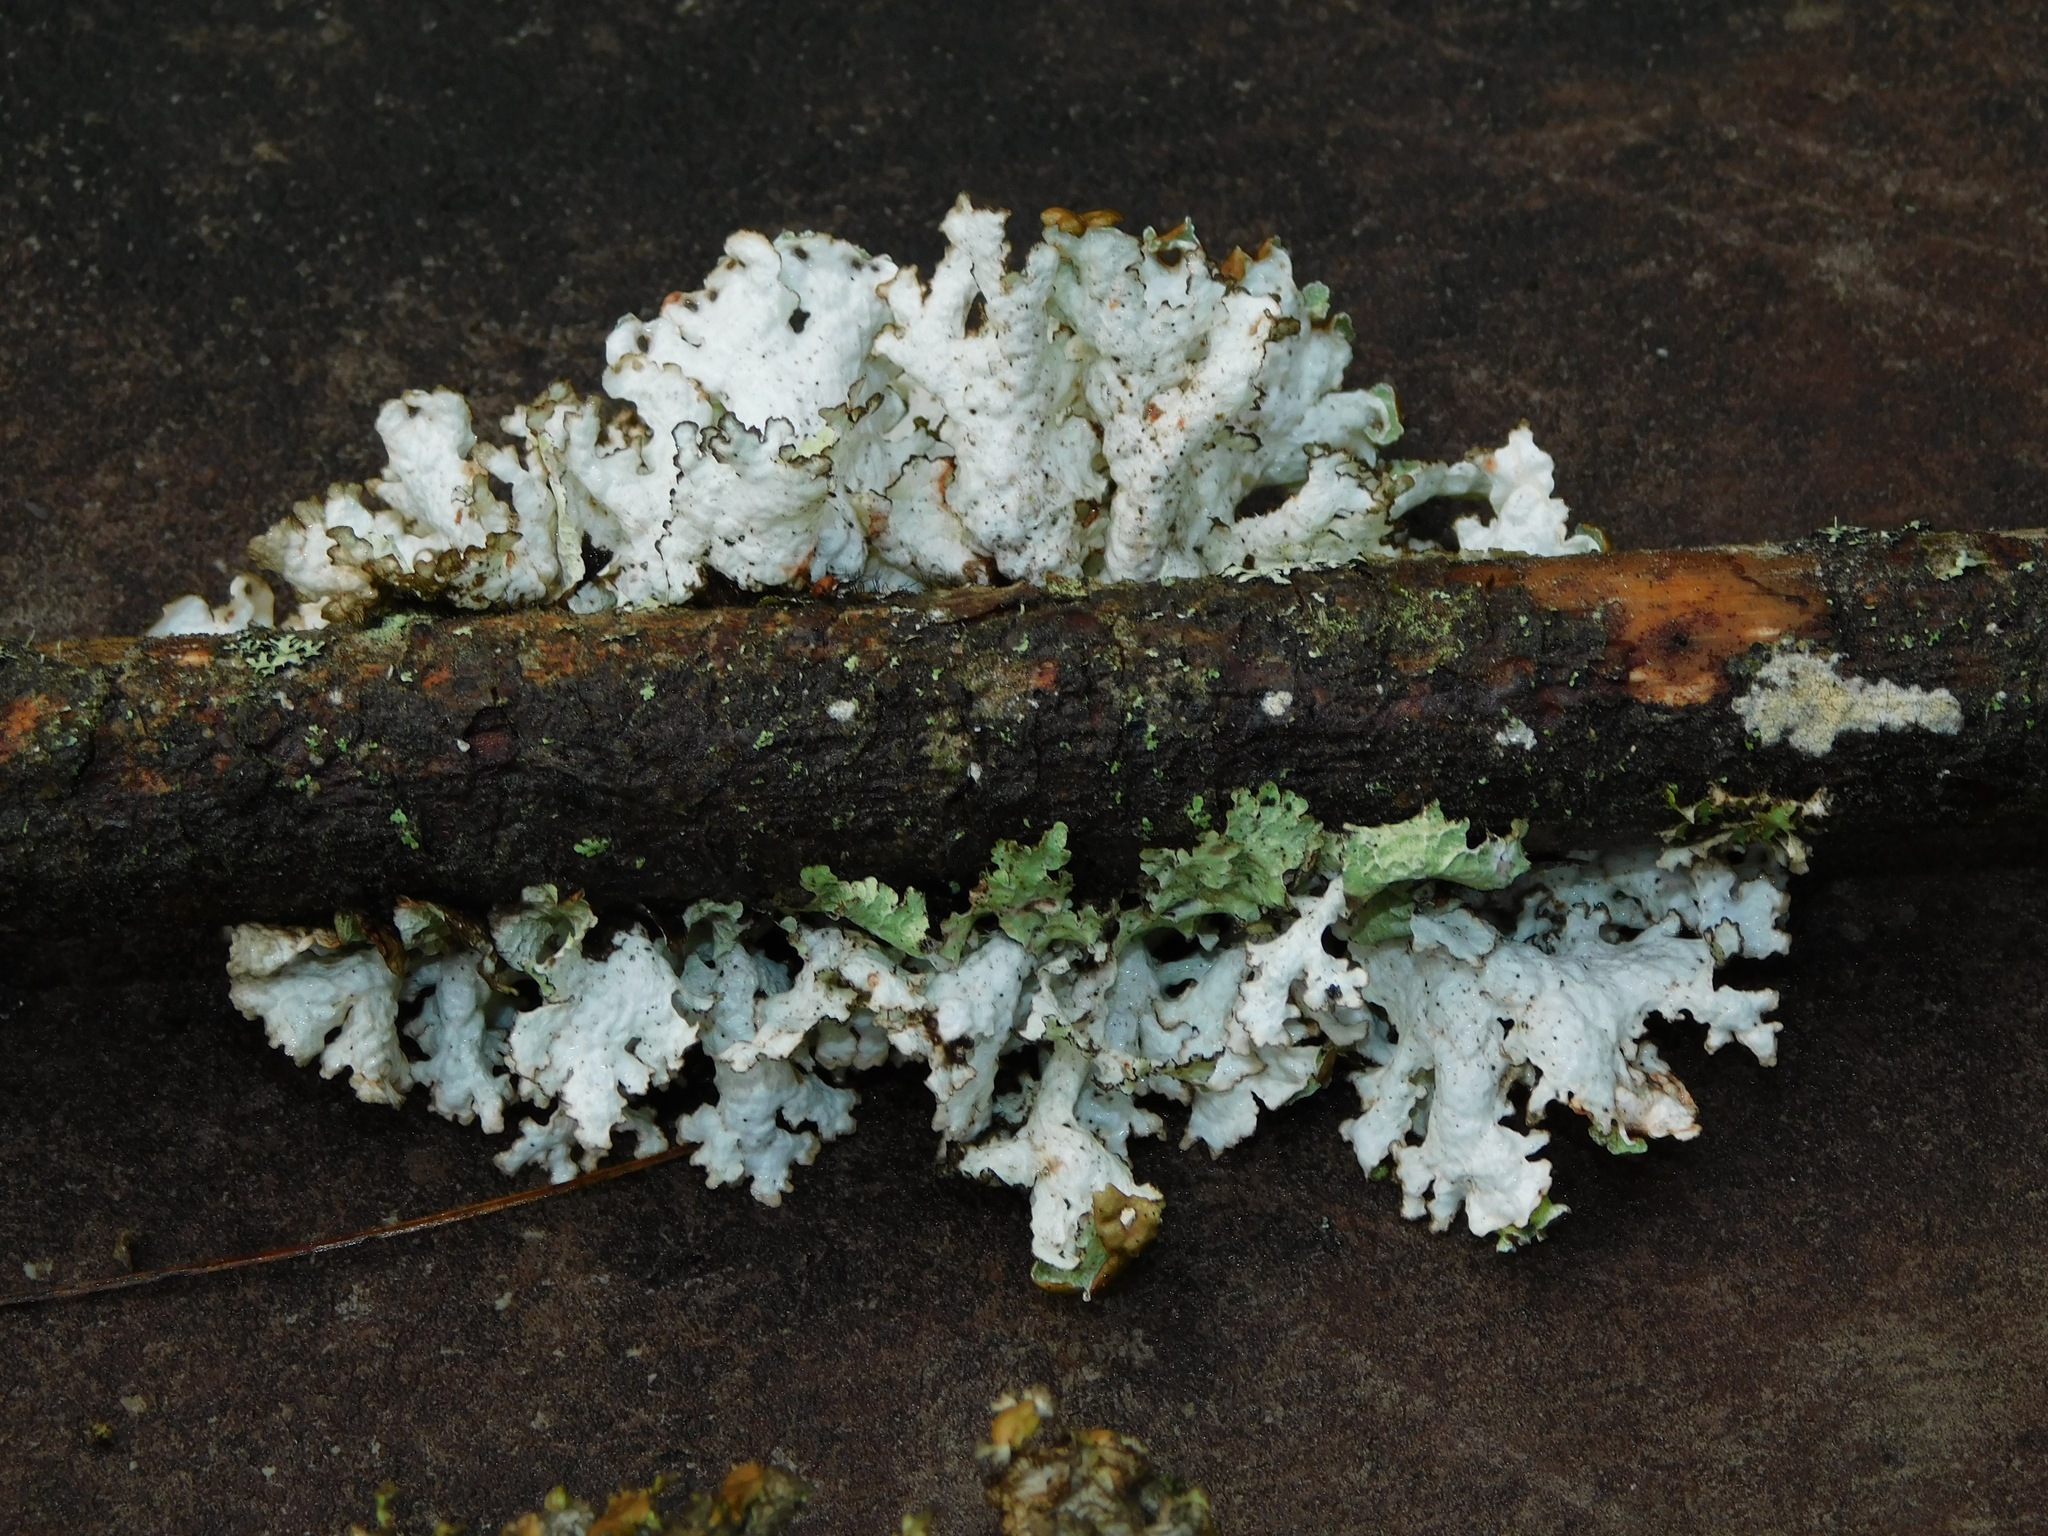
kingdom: Fungi
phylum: Ascomycota
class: Lecanoromycetes
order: Lecanorales
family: Parmeliaceae
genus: Platismatia
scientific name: Platismatia tuckermanii
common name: Crumpled rag lichen
